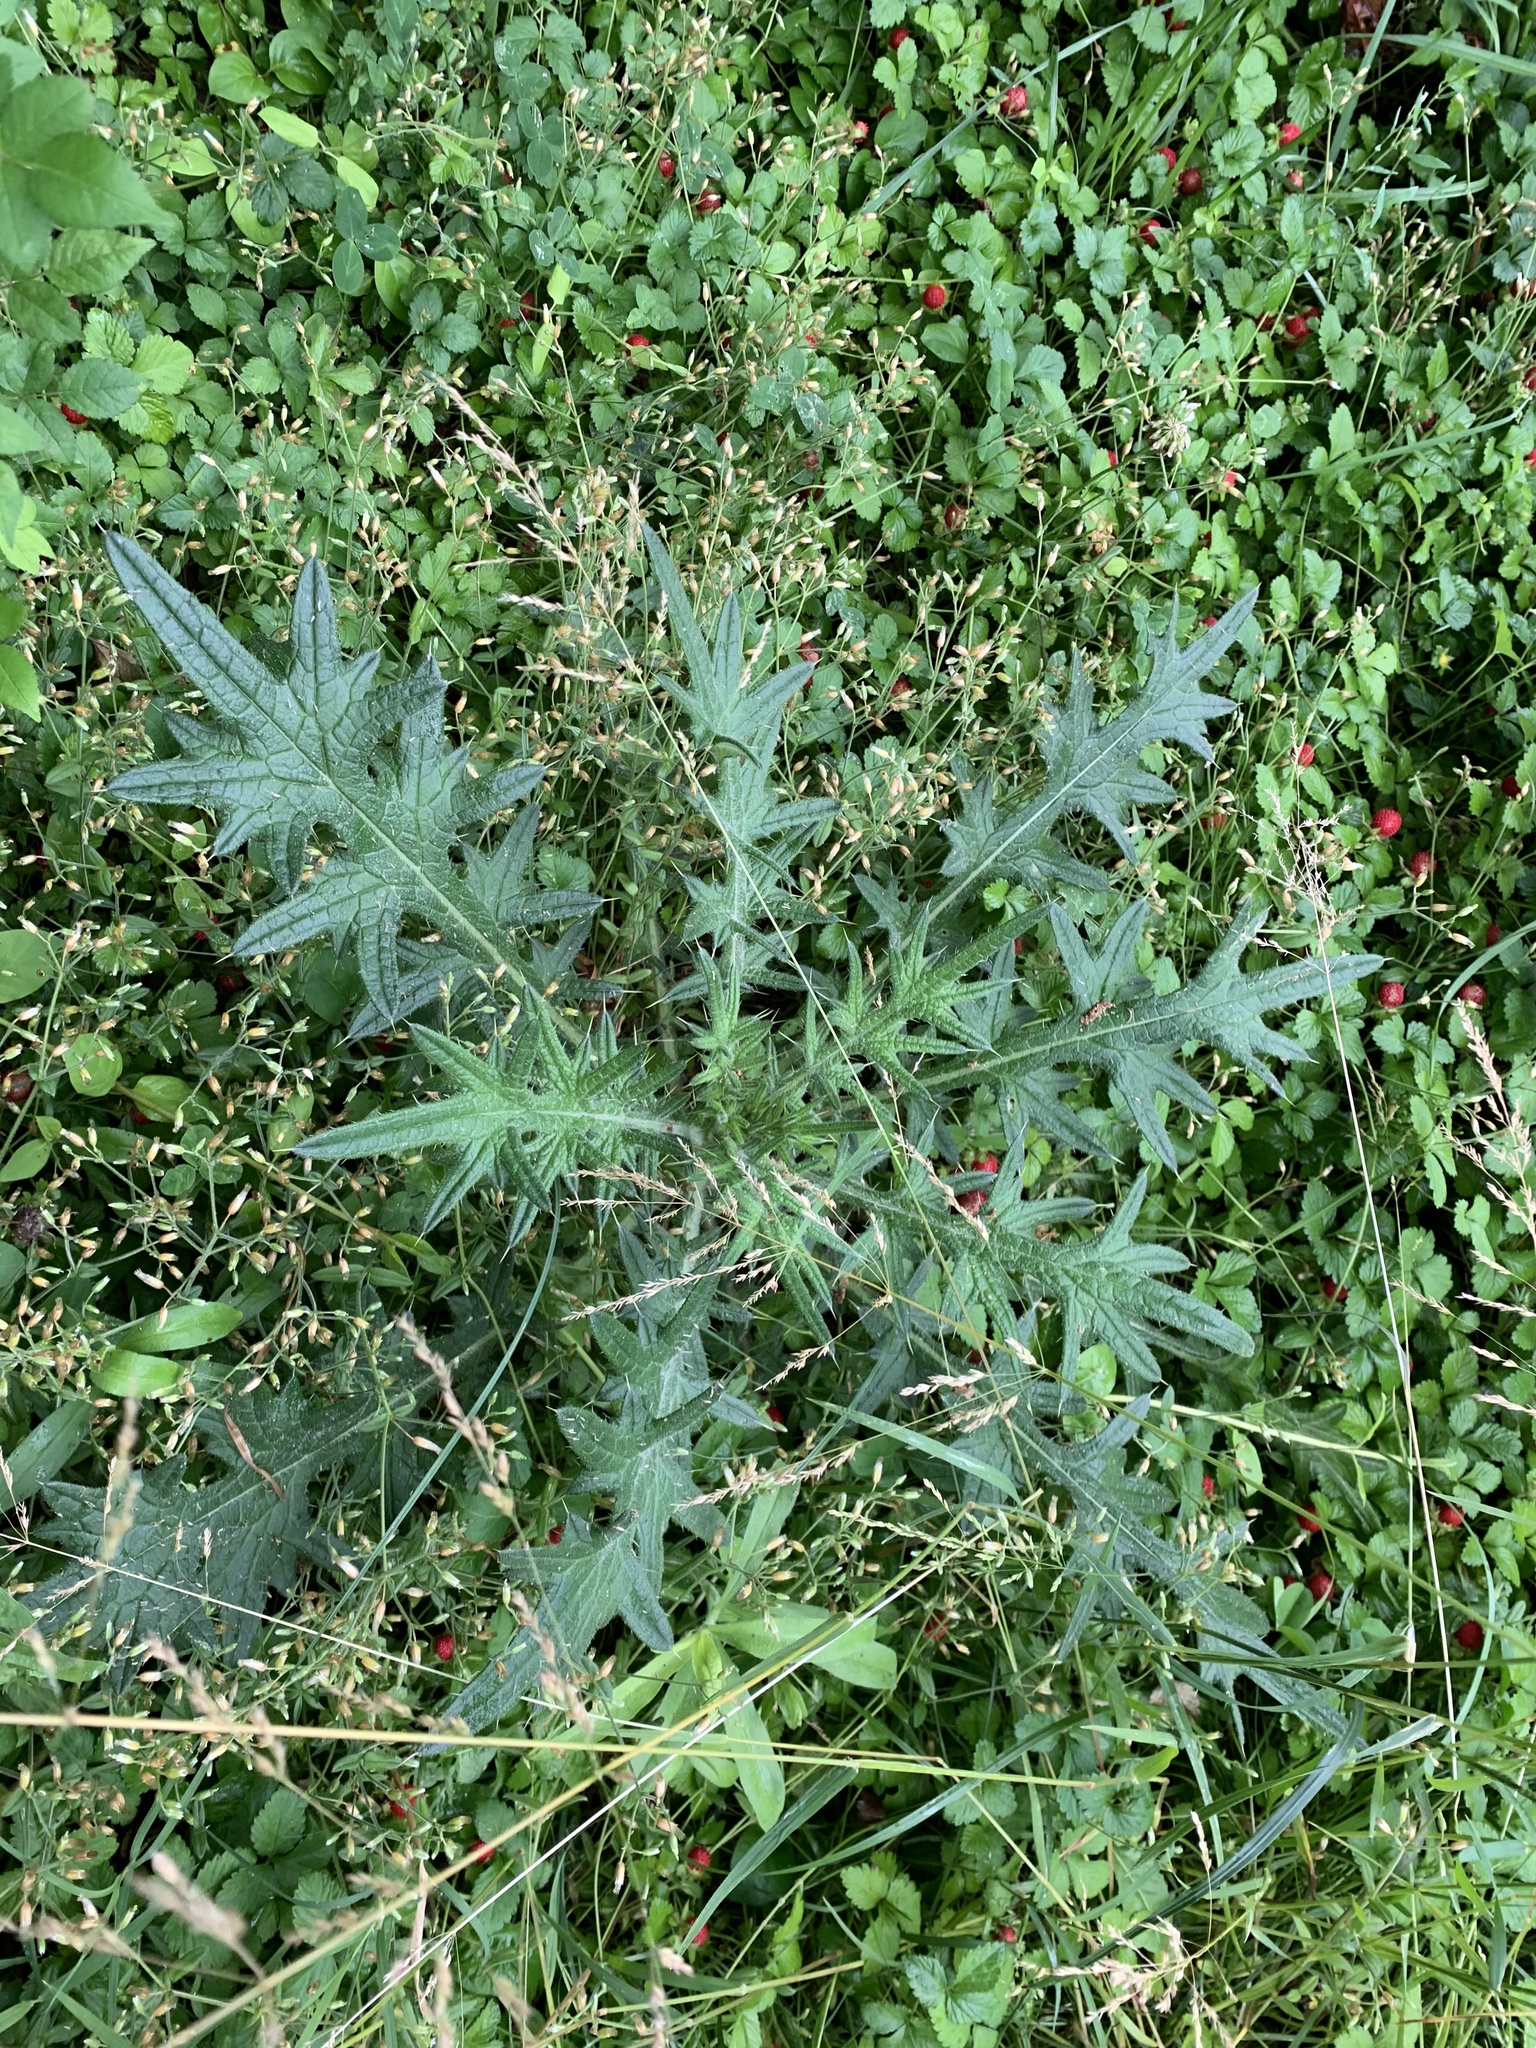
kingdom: Plantae
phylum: Tracheophyta
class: Magnoliopsida
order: Asterales
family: Asteraceae
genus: Cirsium
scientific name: Cirsium vulgare
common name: Bull thistle
